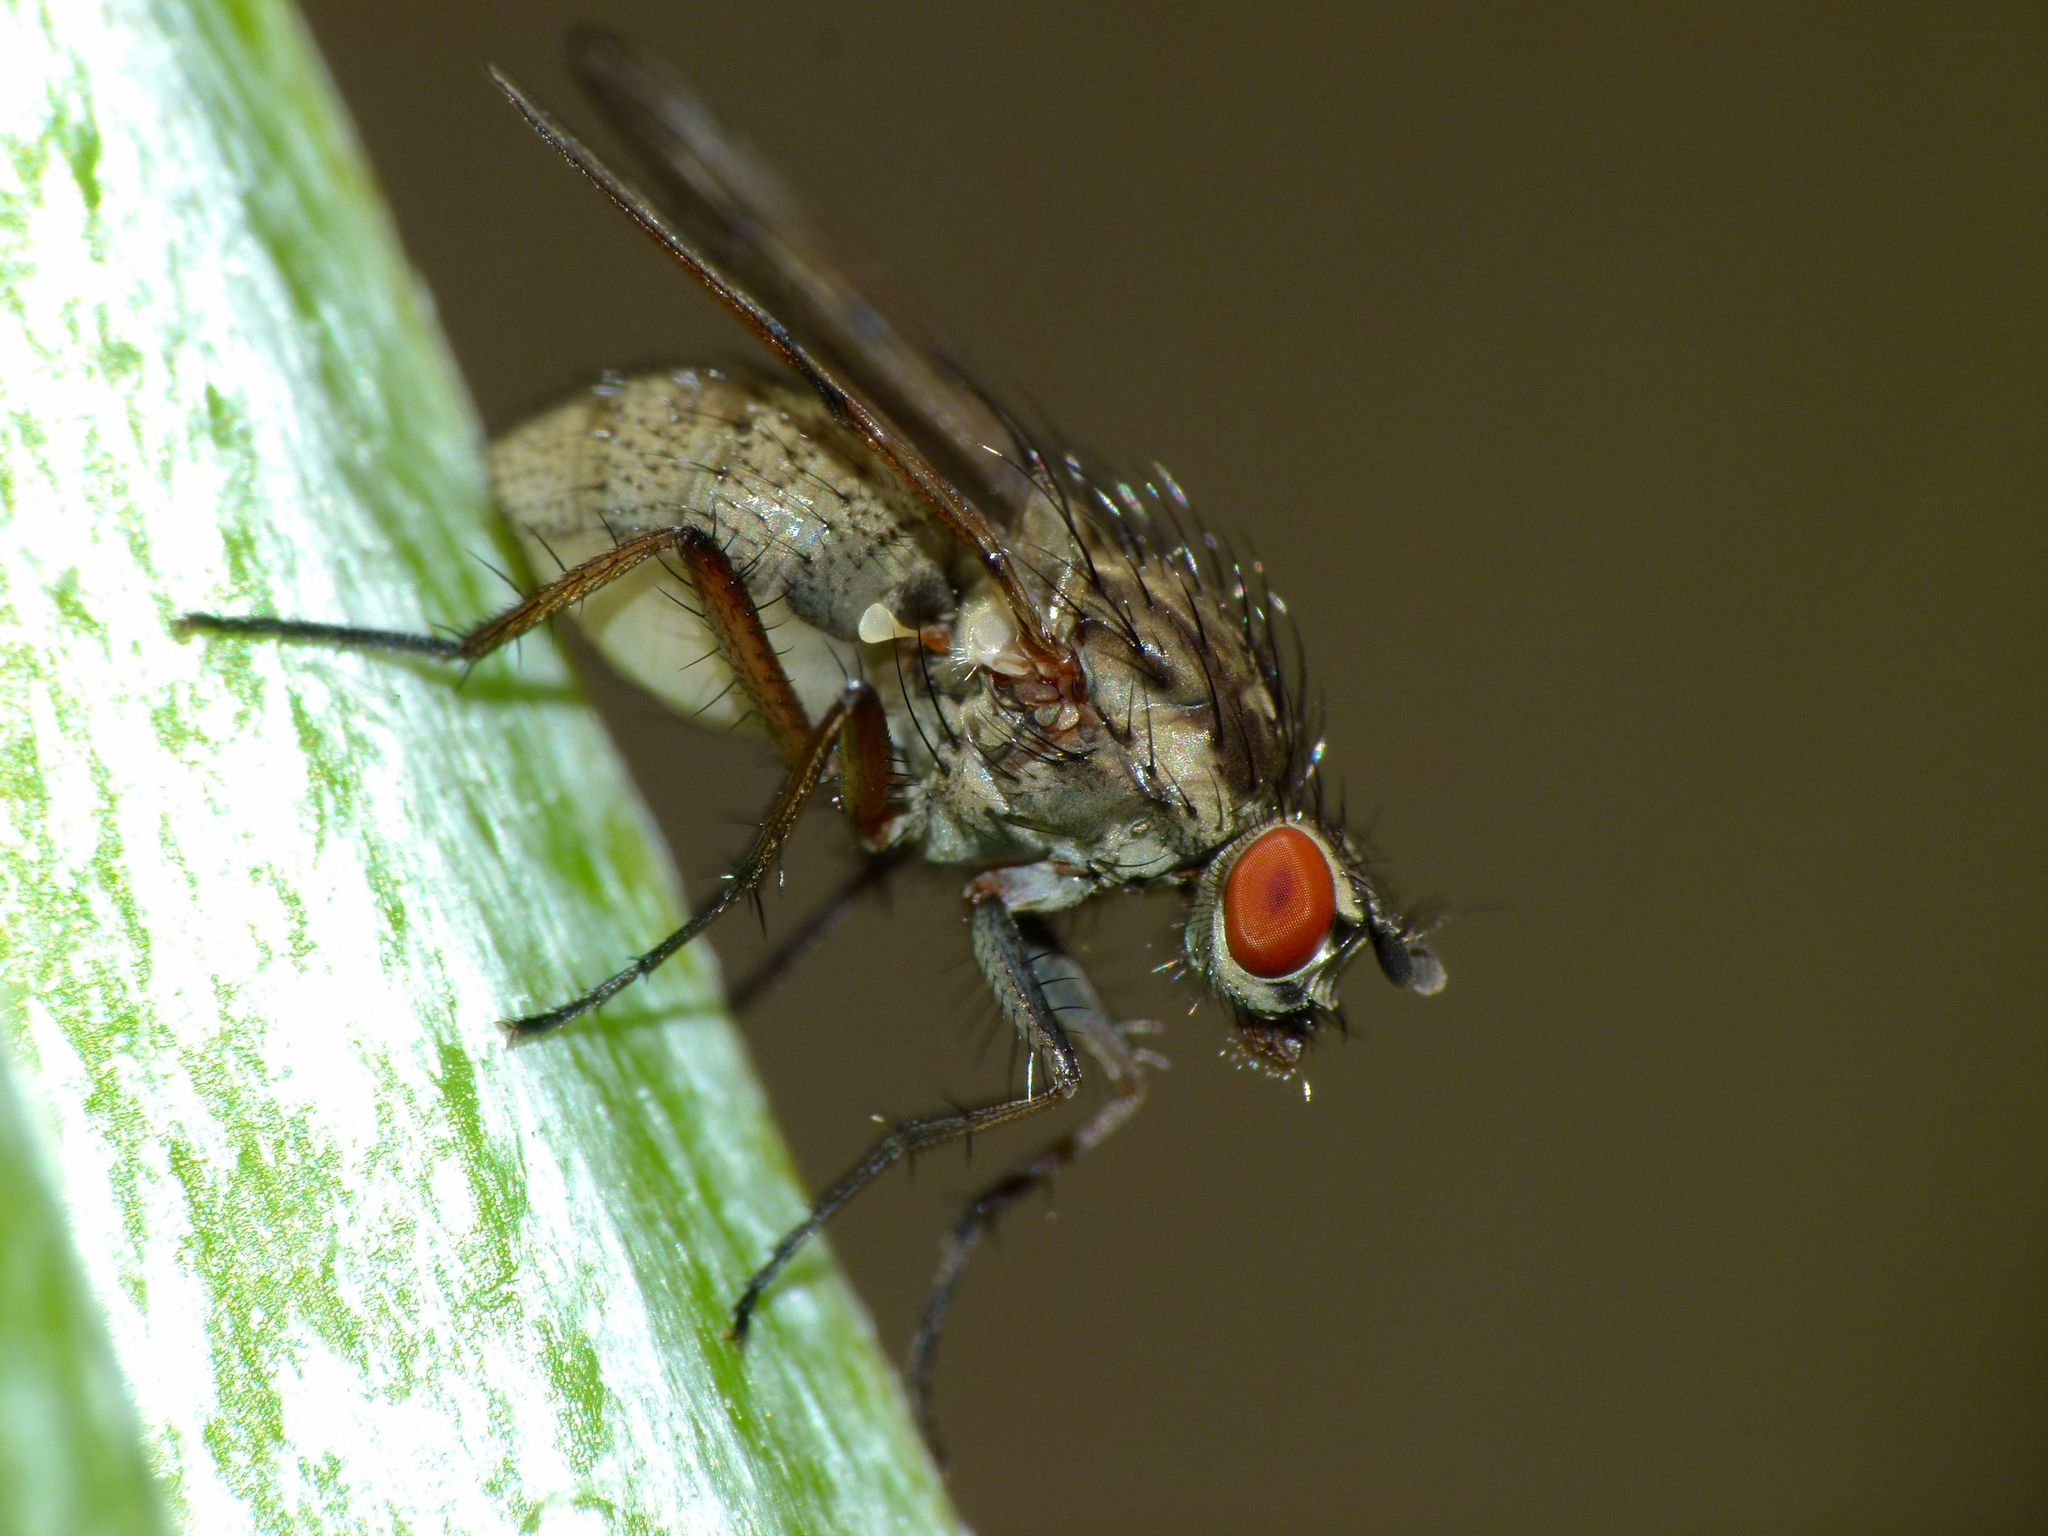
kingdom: Animalia
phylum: Arthropoda
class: Insecta
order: Diptera
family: Anthomyiidae
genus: Anthomyia
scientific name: Anthomyia punctipennis
